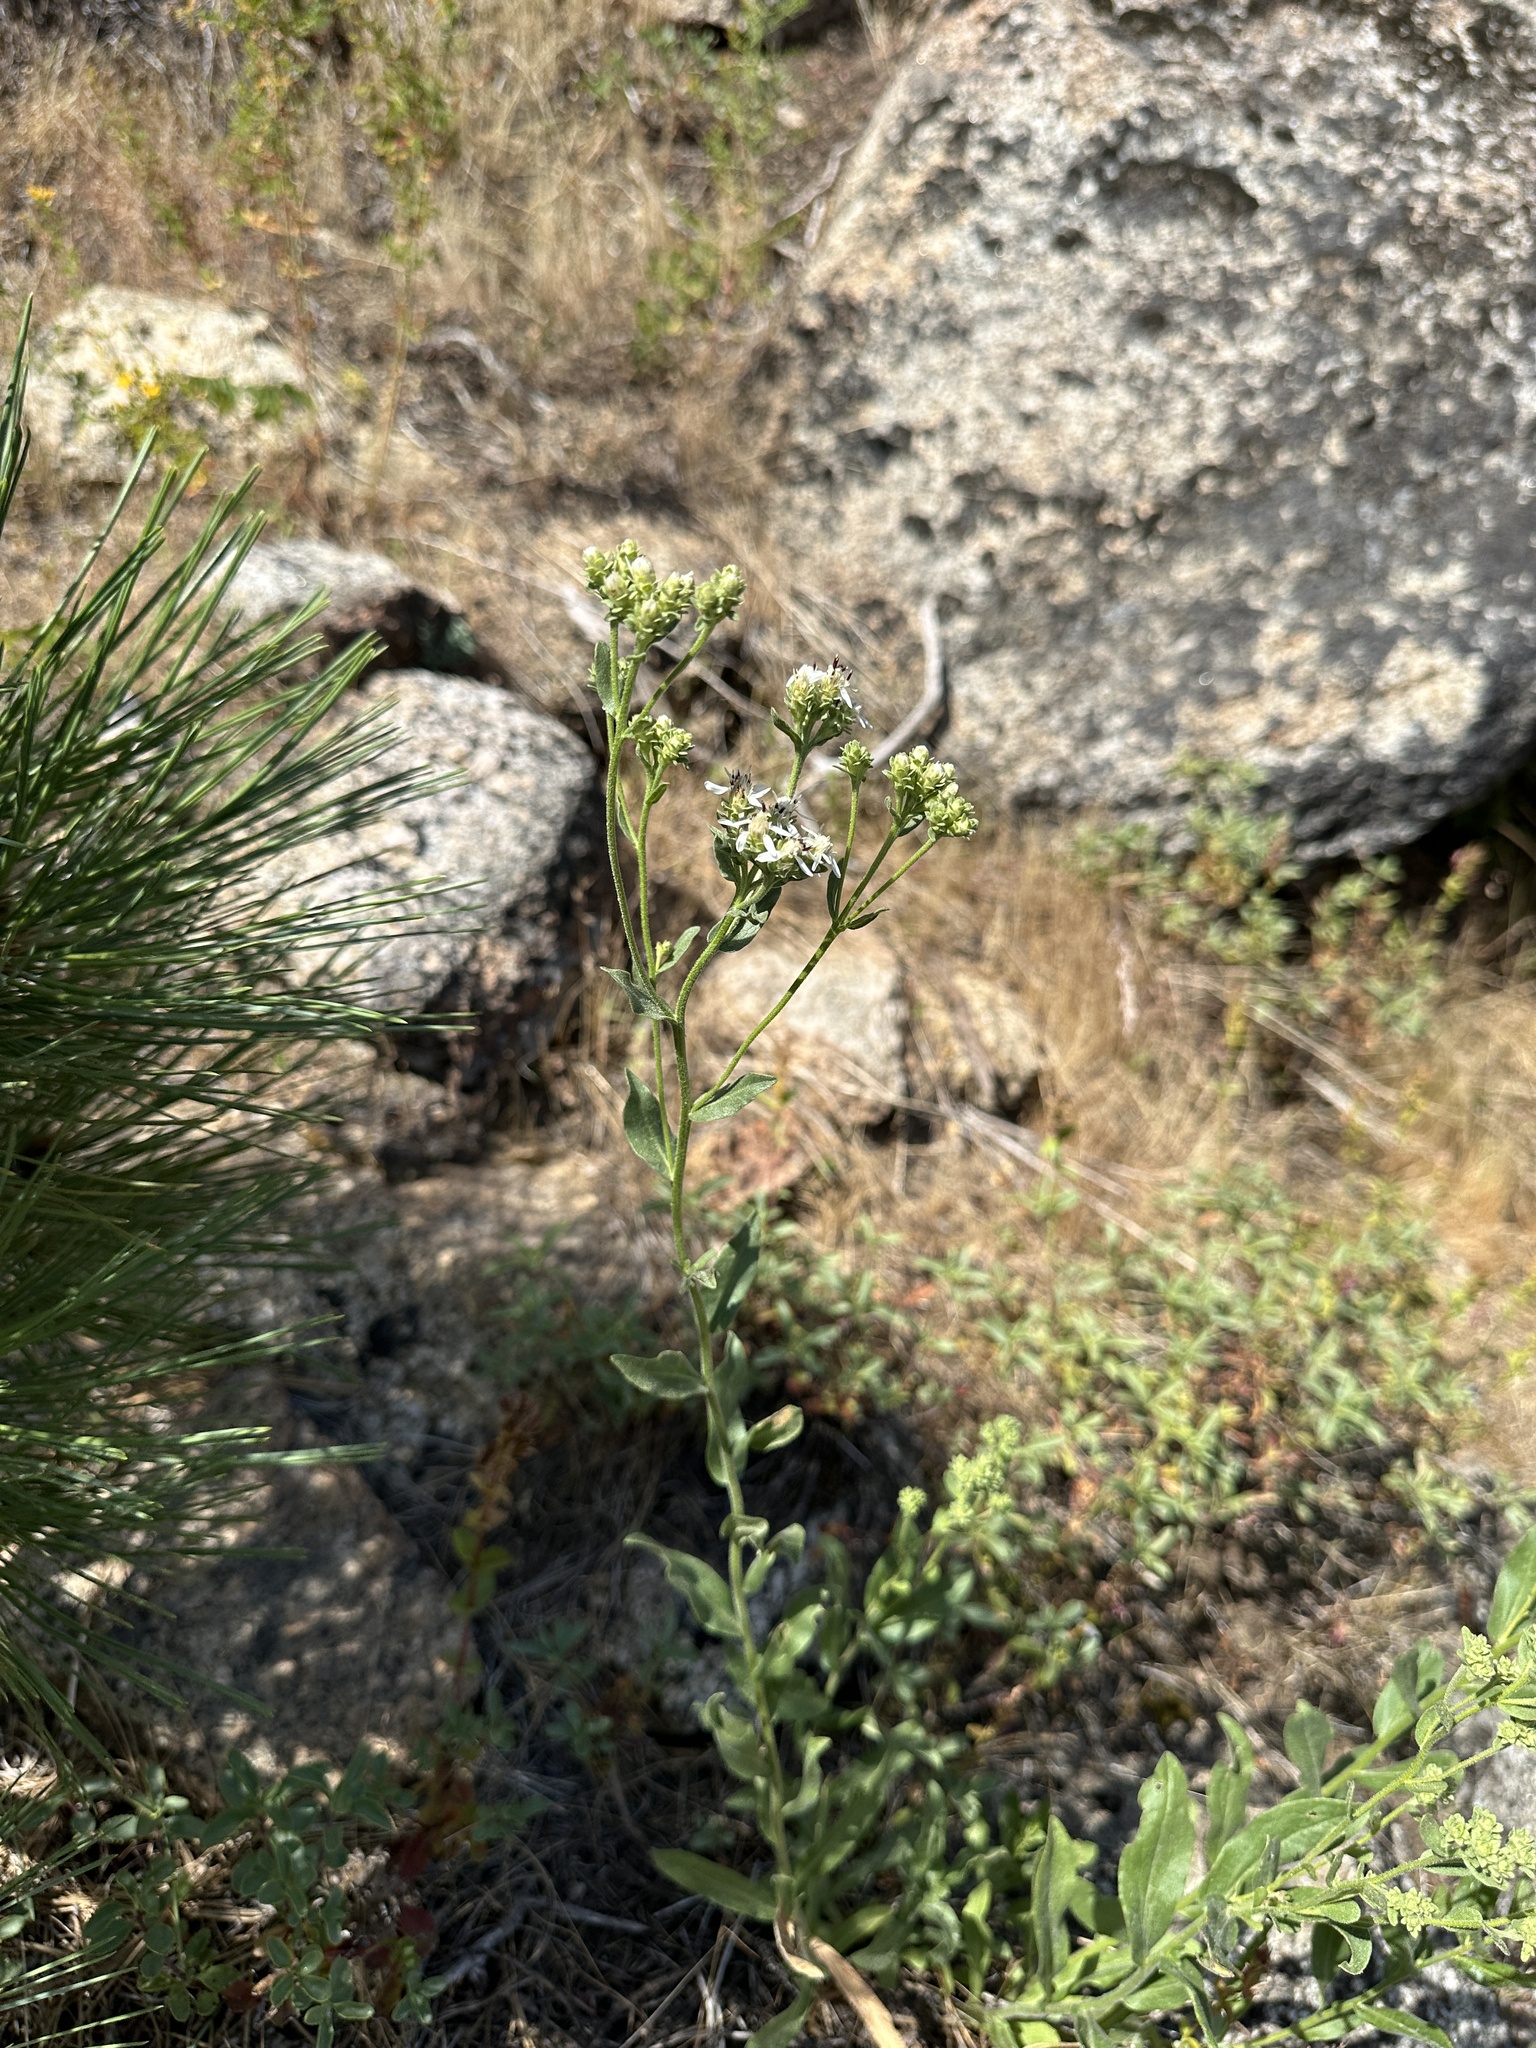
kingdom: Plantae
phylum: Tracheophyta
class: Magnoliopsida
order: Asterales
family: Asteraceae
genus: Sericocarpus
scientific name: Sericocarpus oregonensis
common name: Oregon white-top aster
